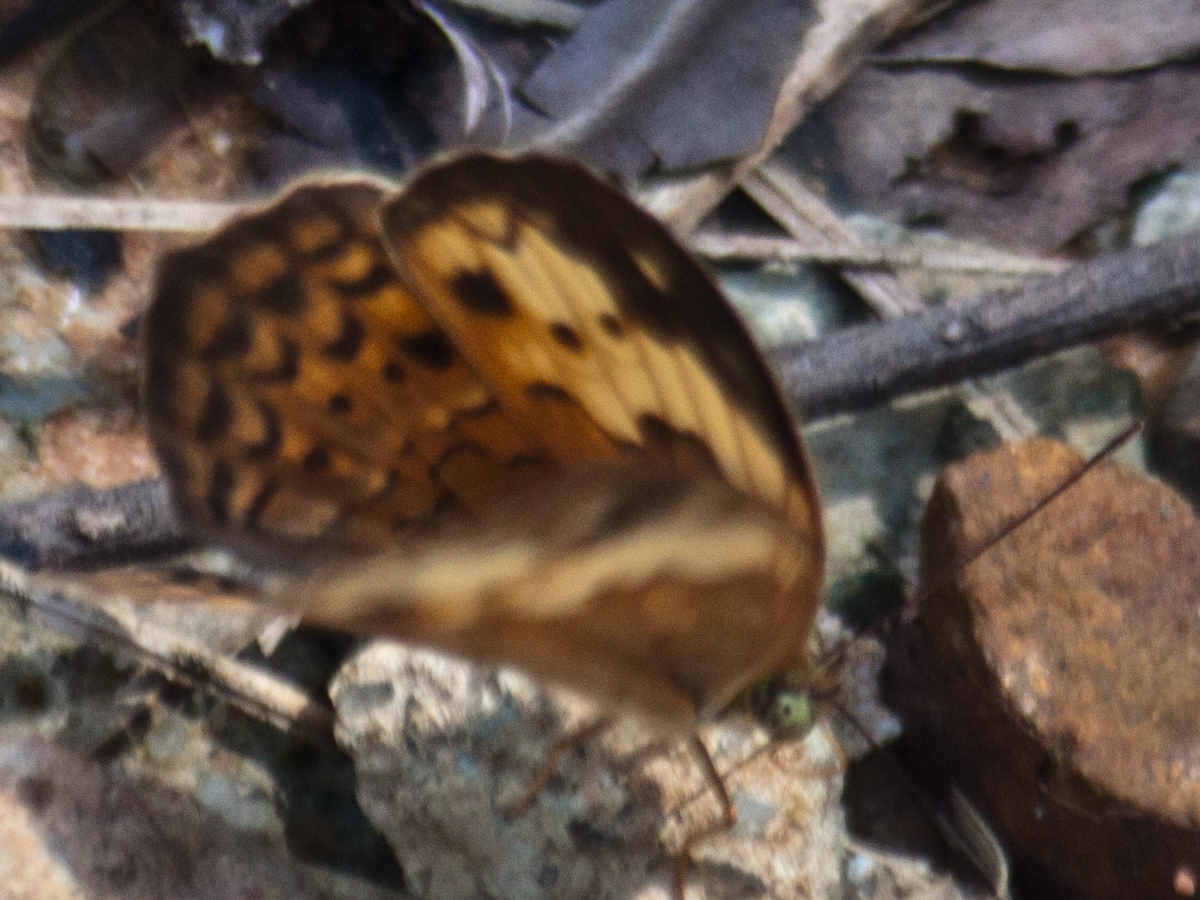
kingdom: Animalia
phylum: Arthropoda
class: Insecta
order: Lepidoptera
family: Nymphalidae
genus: Cupha
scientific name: Cupha erymanthis
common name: Rustic
